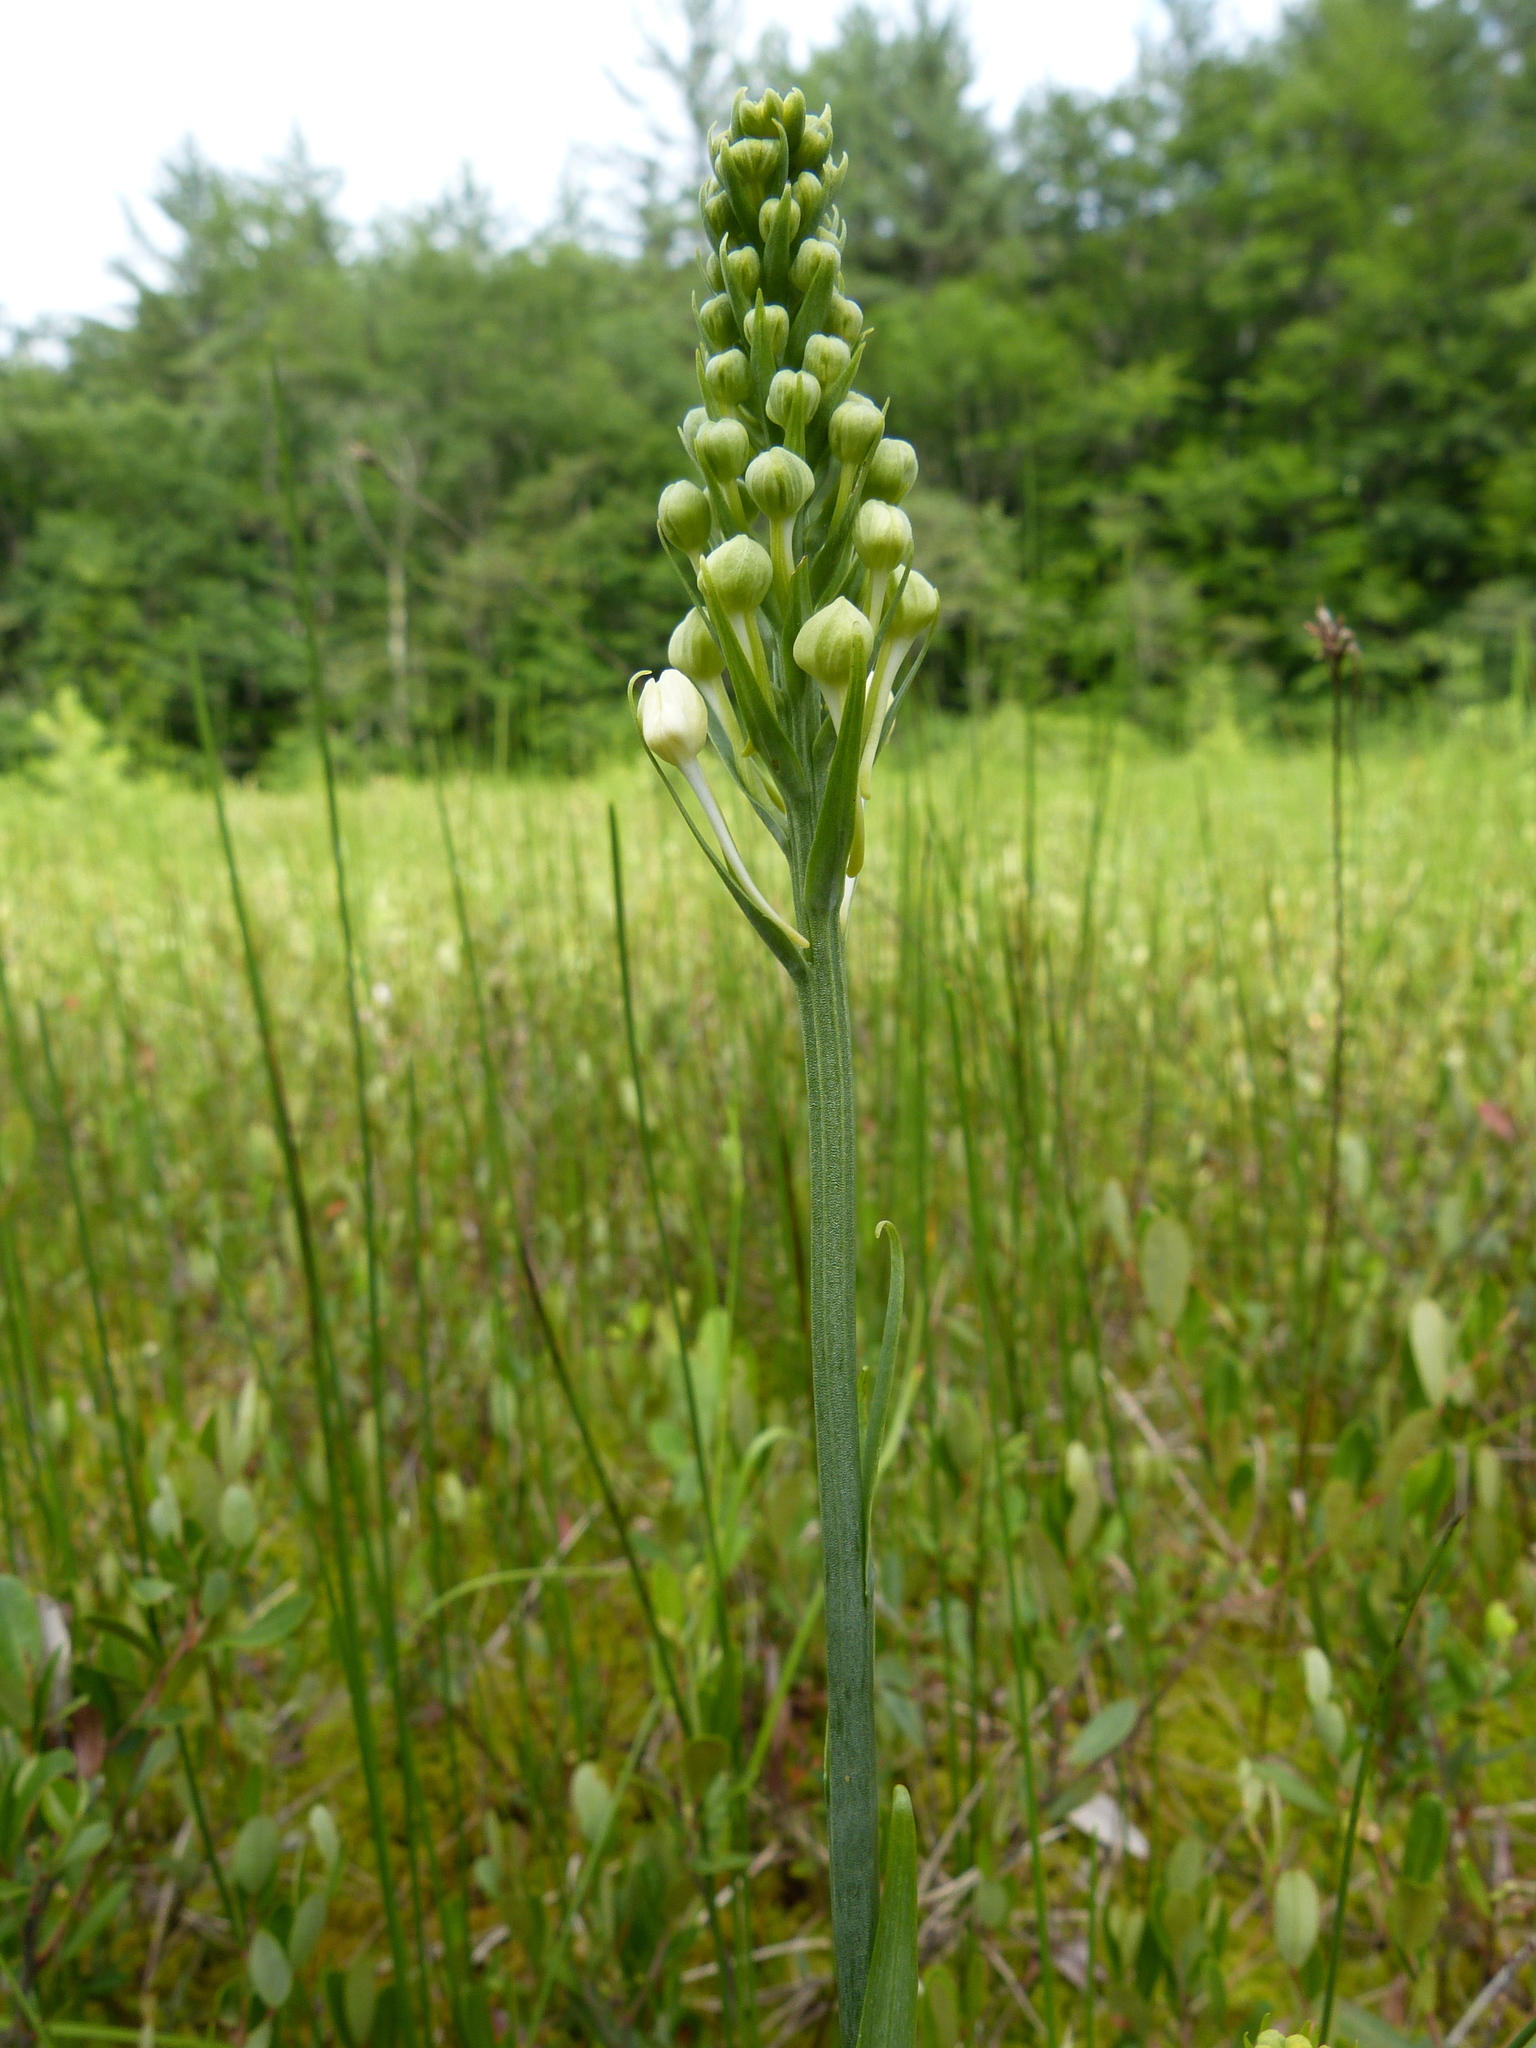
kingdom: Plantae
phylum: Tracheophyta
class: Liliopsida
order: Asparagales
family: Orchidaceae
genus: Platanthera
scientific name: Platanthera blephariglottis
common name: White fringed orchid
